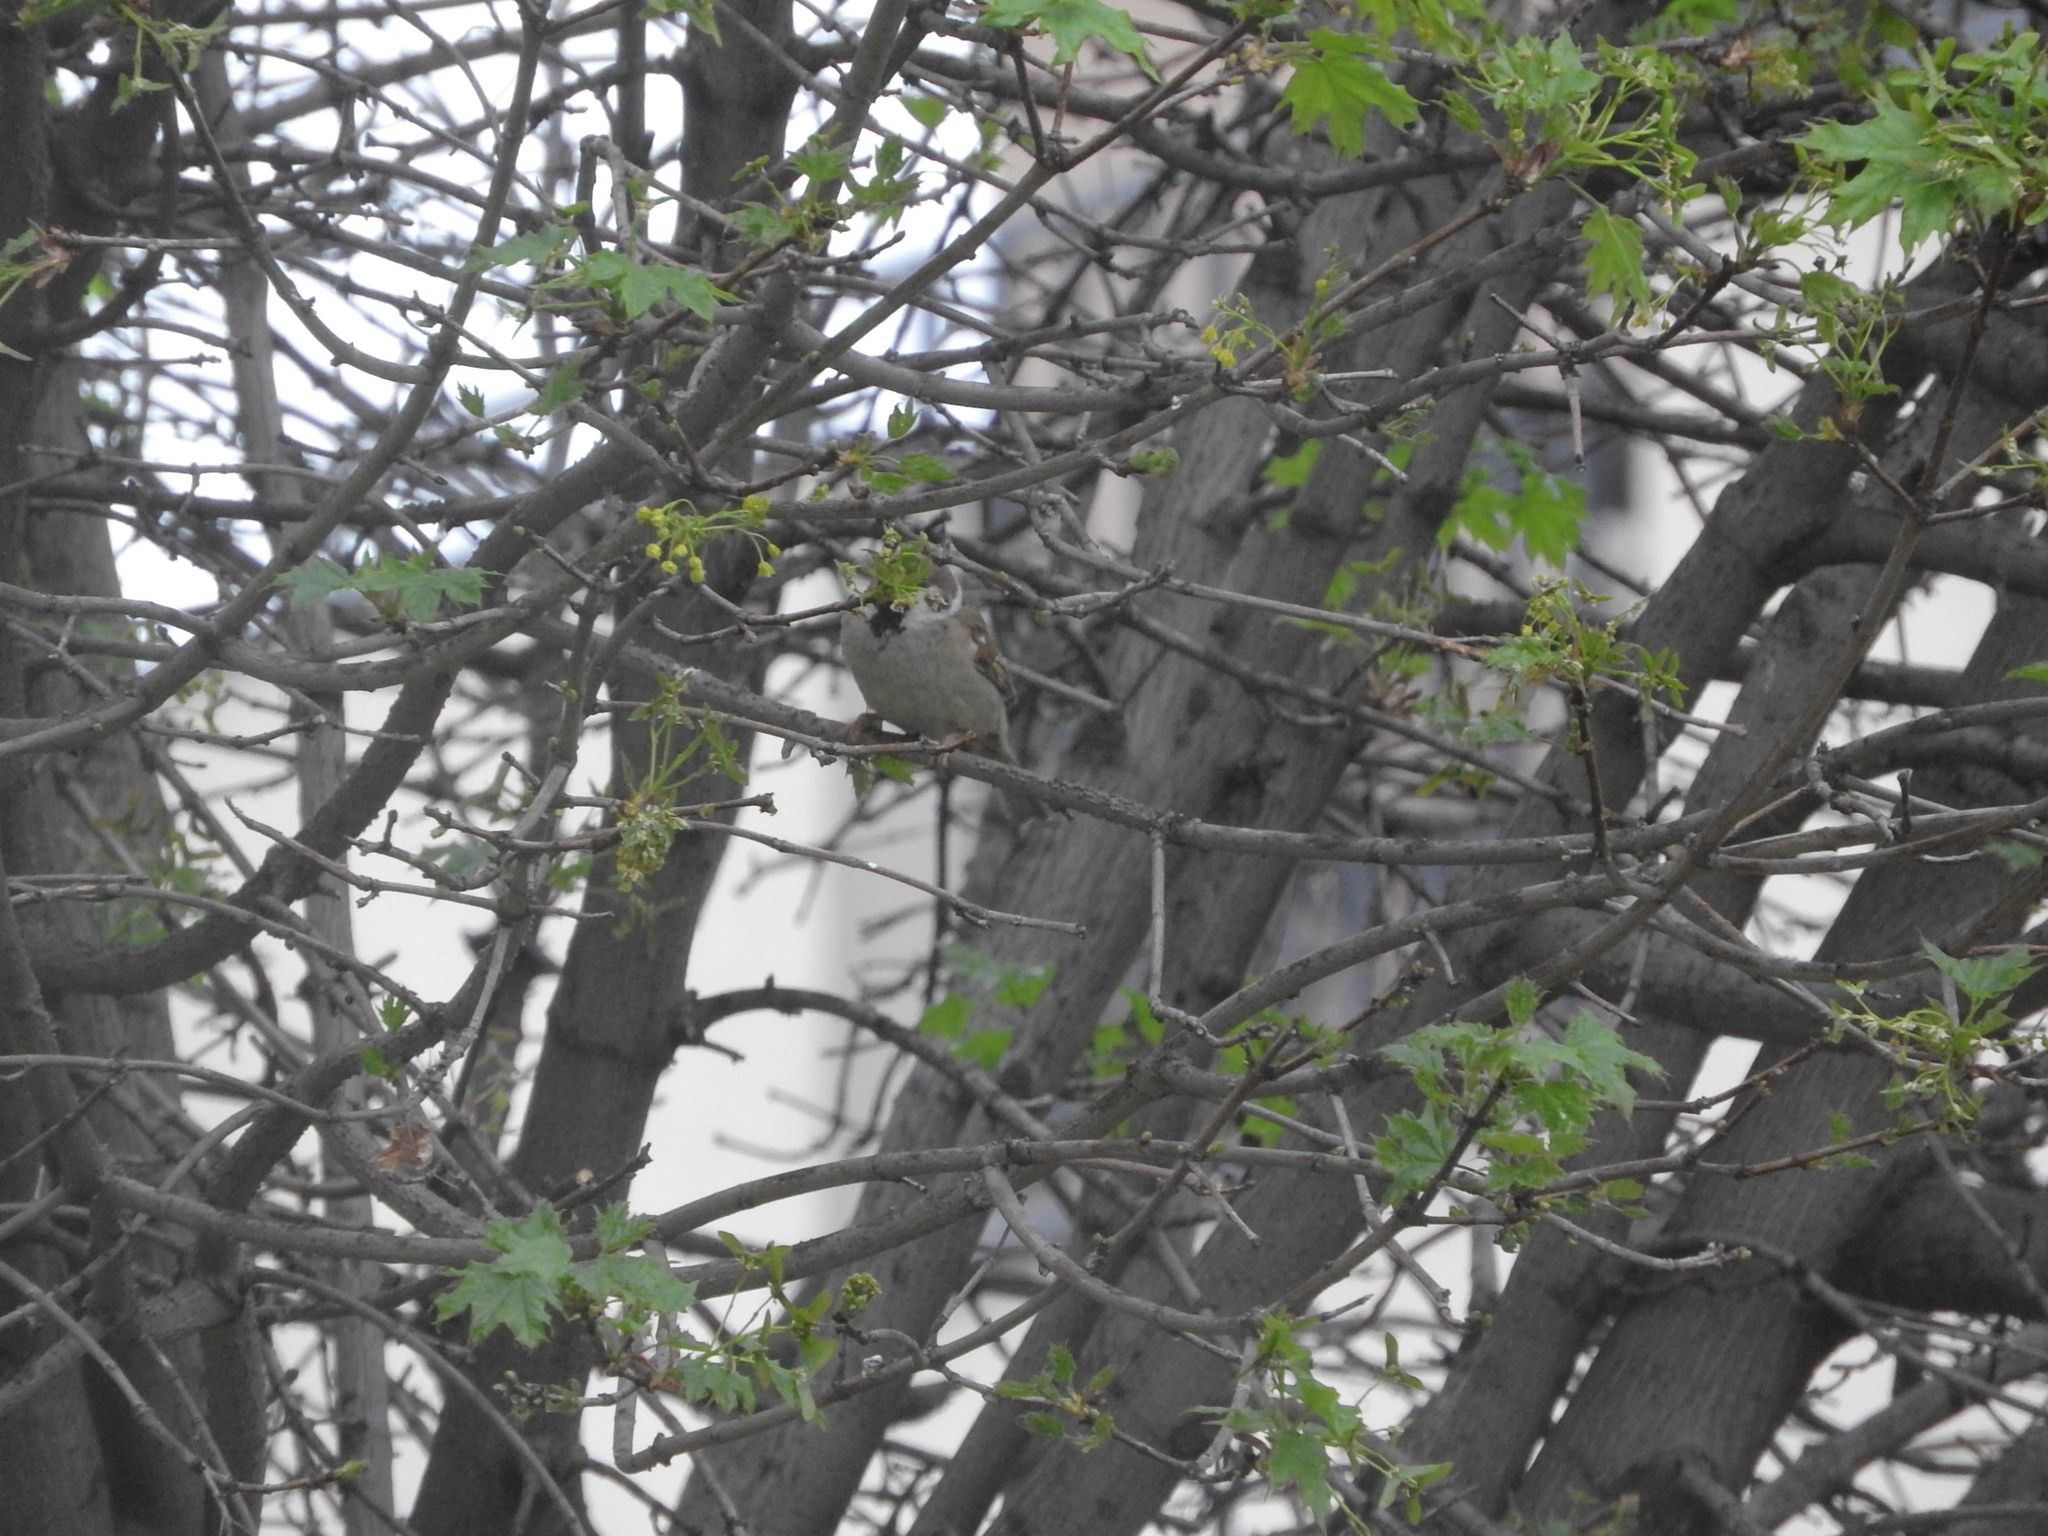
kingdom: Animalia
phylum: Chordata
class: Aves
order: Passeriformes
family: Passeridae
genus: Passer
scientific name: Passer montanus
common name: Eurasian tree sparrow
